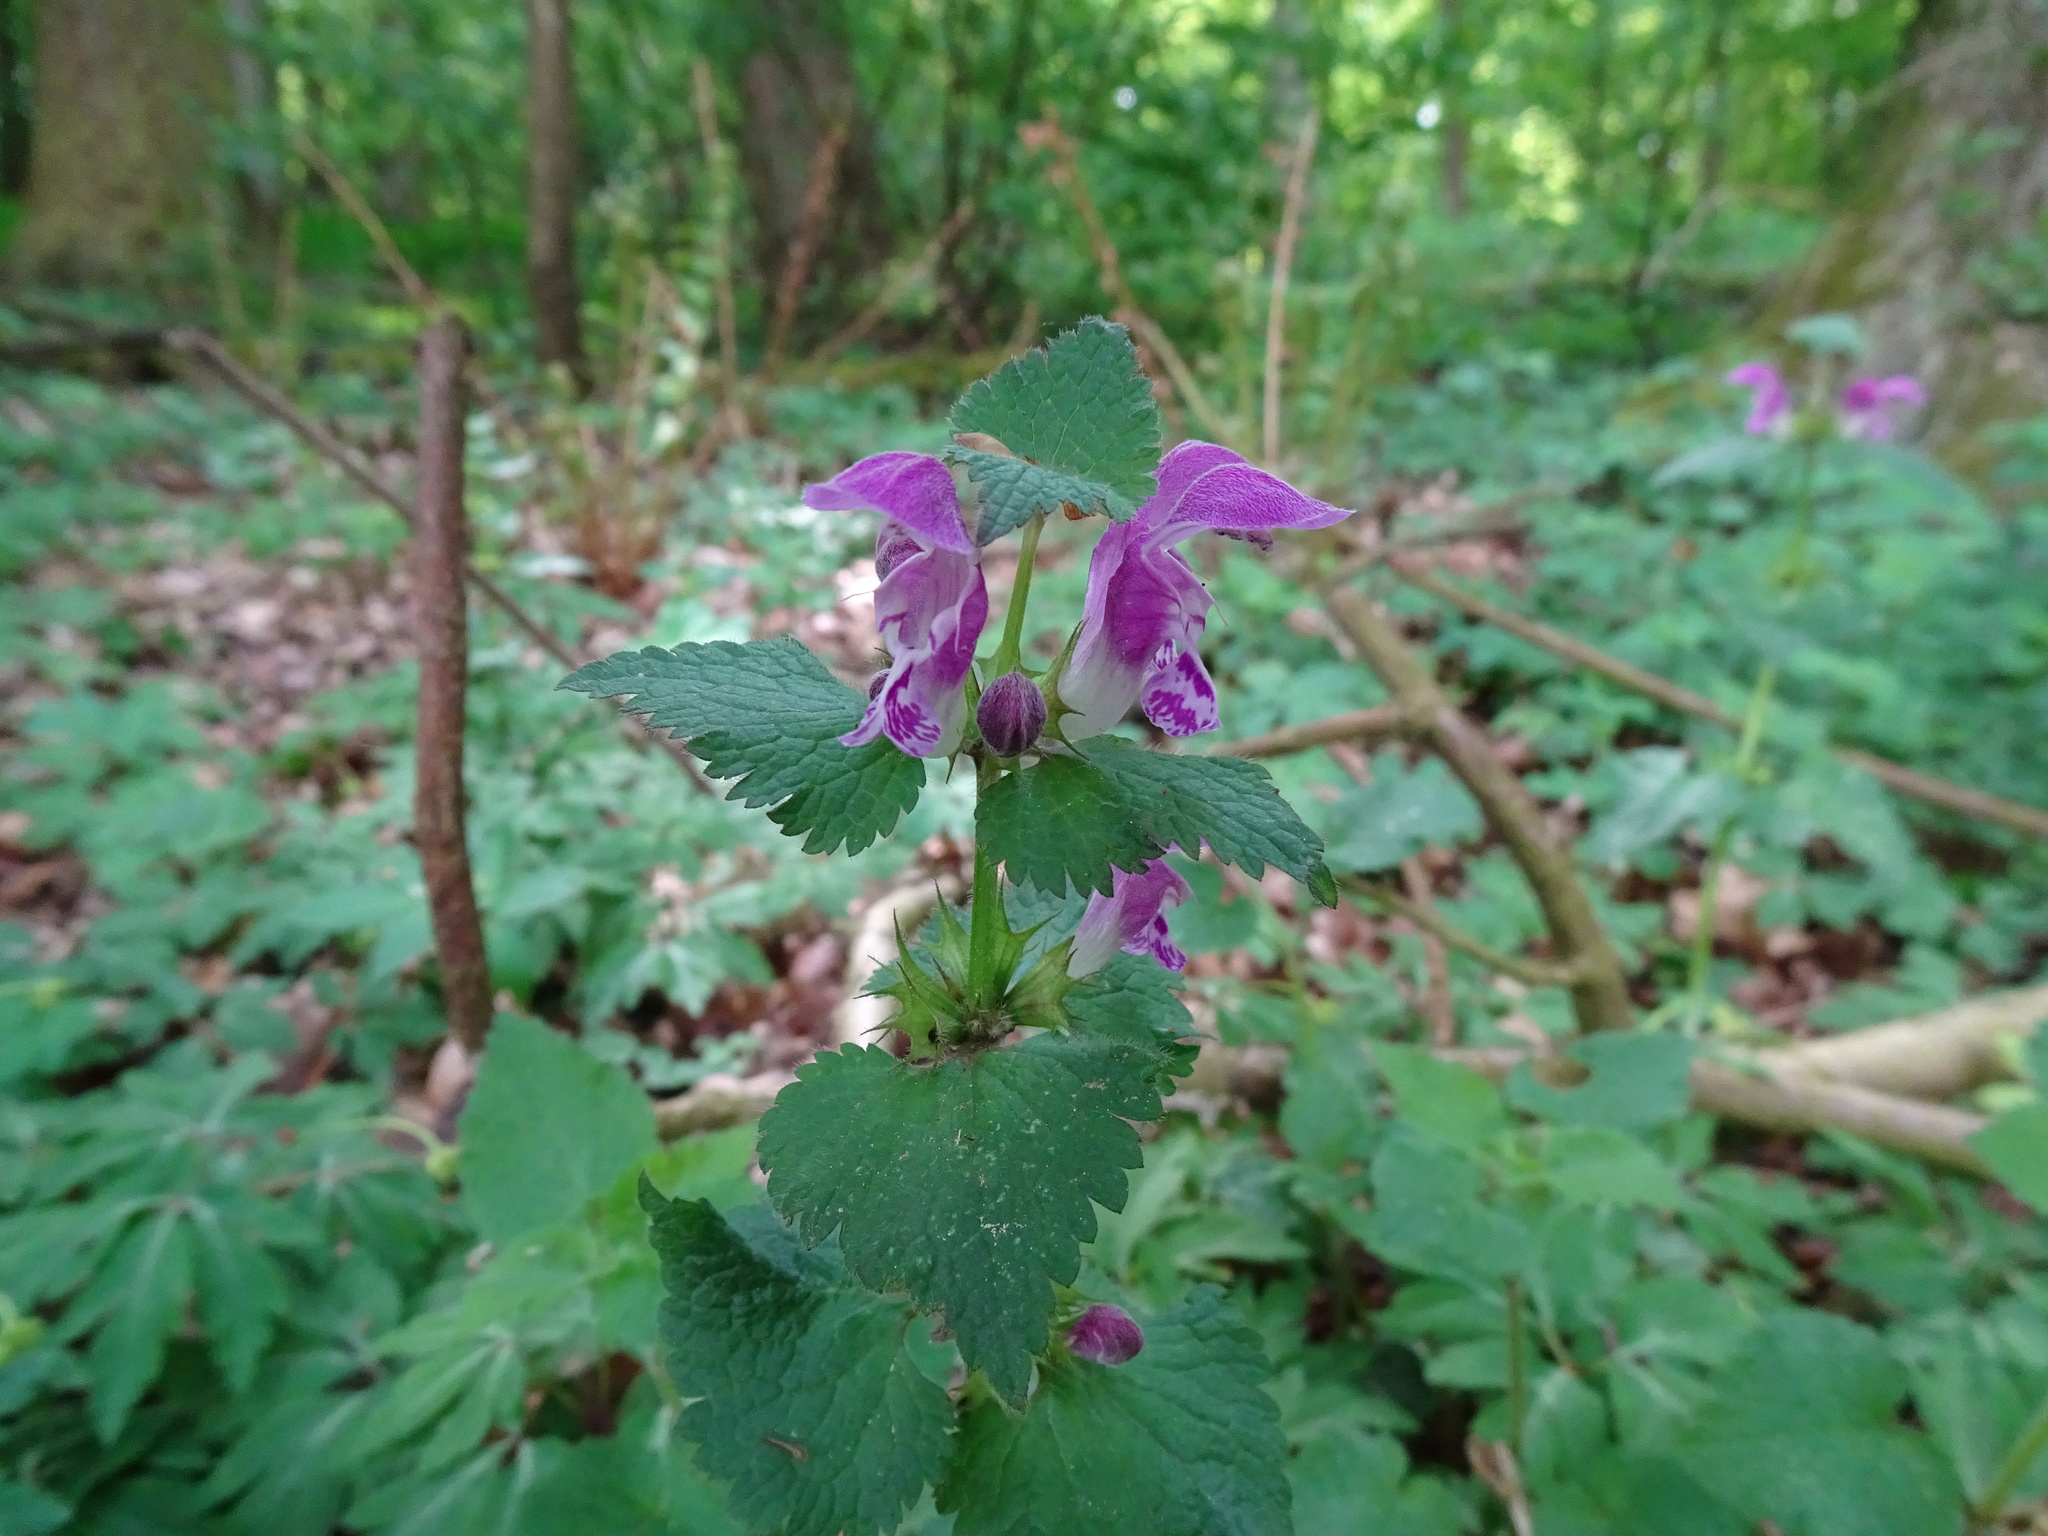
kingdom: Plantae
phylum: Tracheophyta
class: Magnoliopsida
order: Lamiales
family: Lamiaceae
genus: Lamium
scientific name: Lamium maculatum
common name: Spotted dead-nettle
